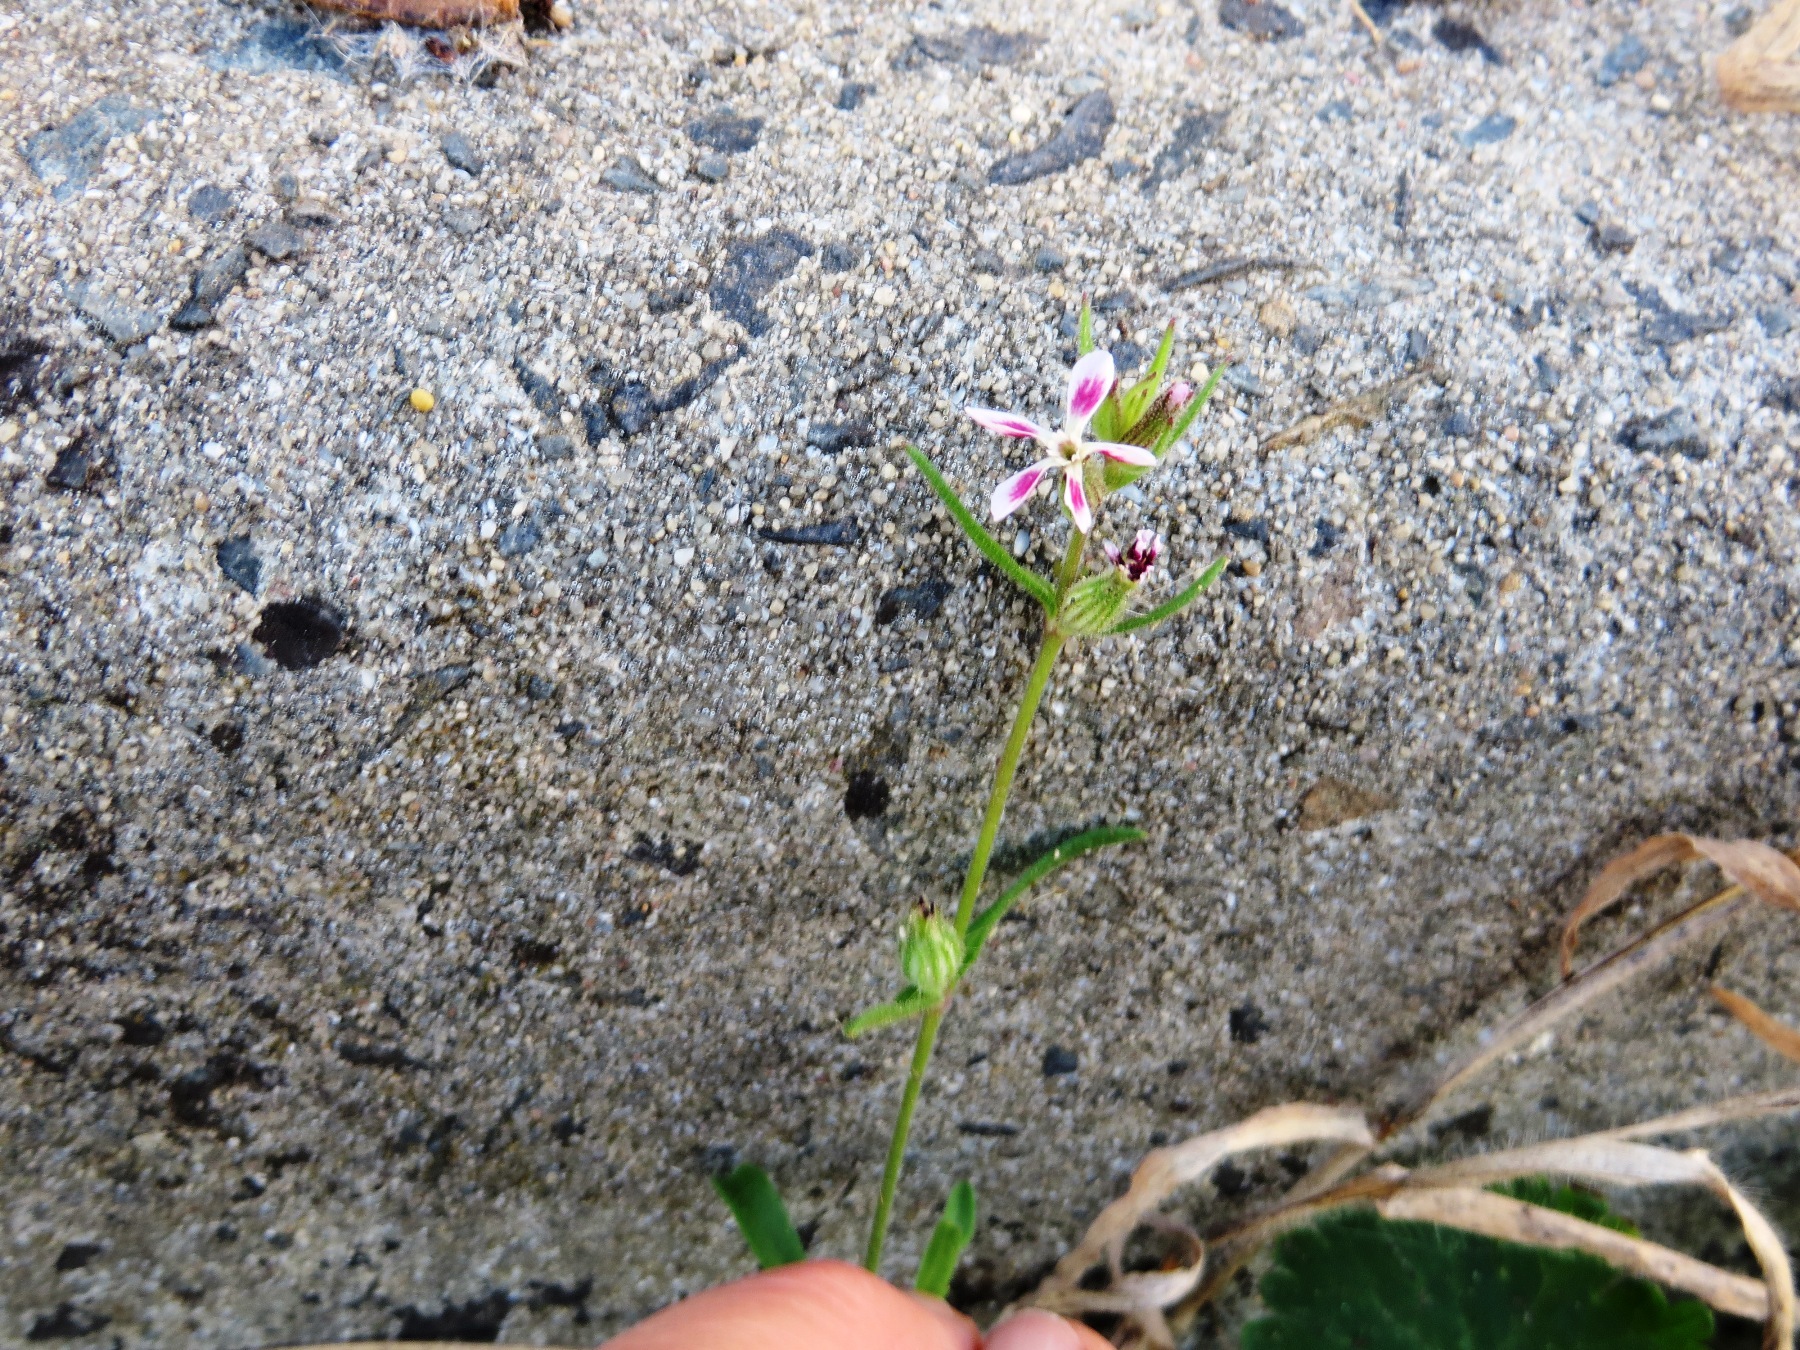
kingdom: Plantae
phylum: Tracheophyta
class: Magnoliopsida
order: Caryophyllales
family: Caryophyllaceae
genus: Silene
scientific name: Silene gallica
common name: Small-flowered catchfly
